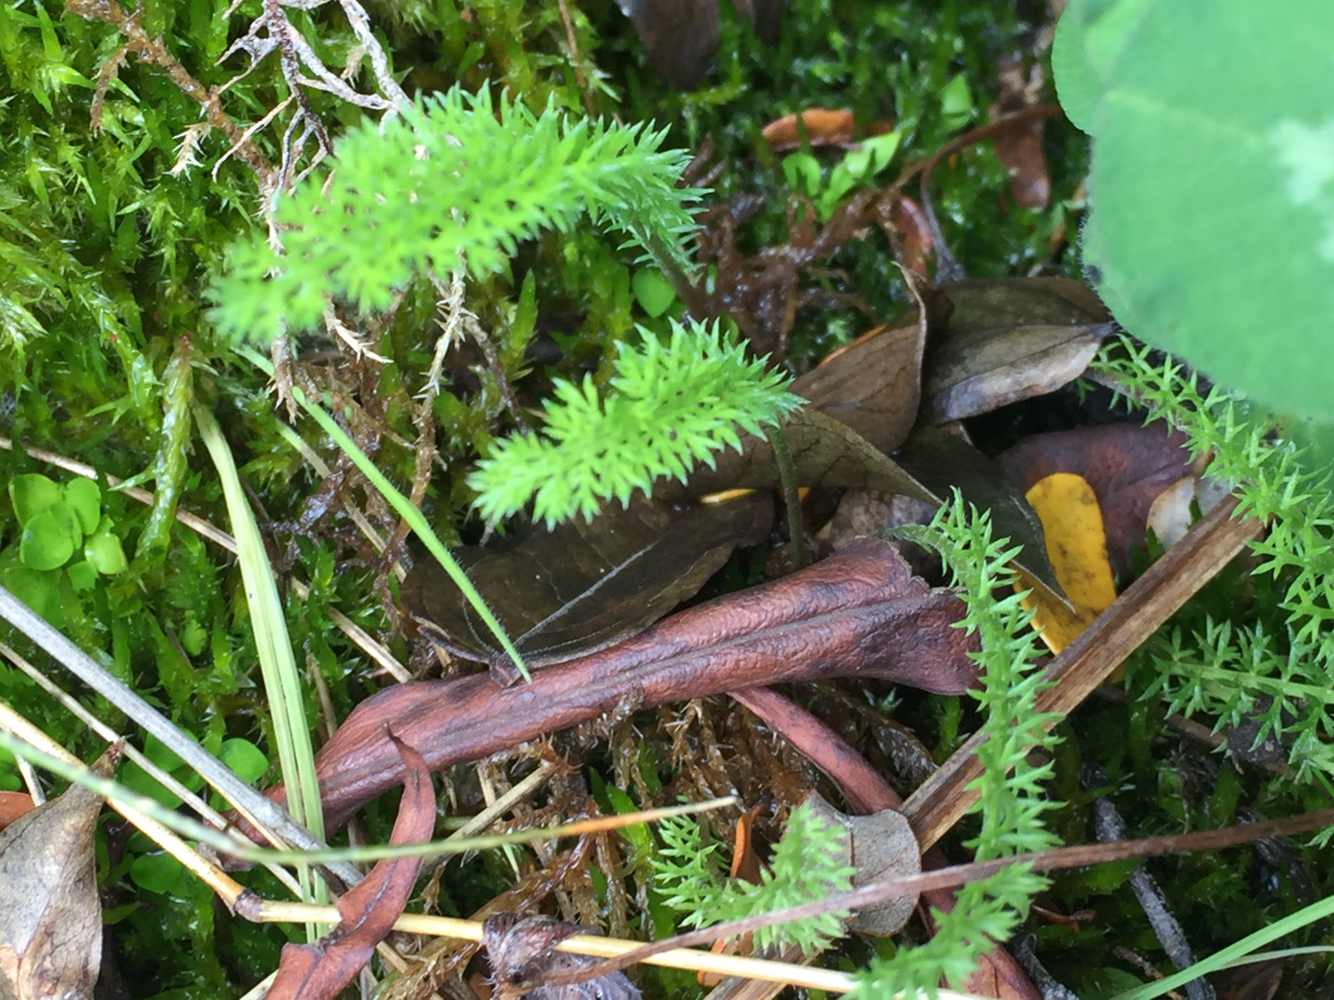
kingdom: Plantae
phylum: Tracheophyta
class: Magnoliopsida
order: Asterales
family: Asteraceae
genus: Achillea
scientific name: Achillea millefolium
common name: Yarrow
